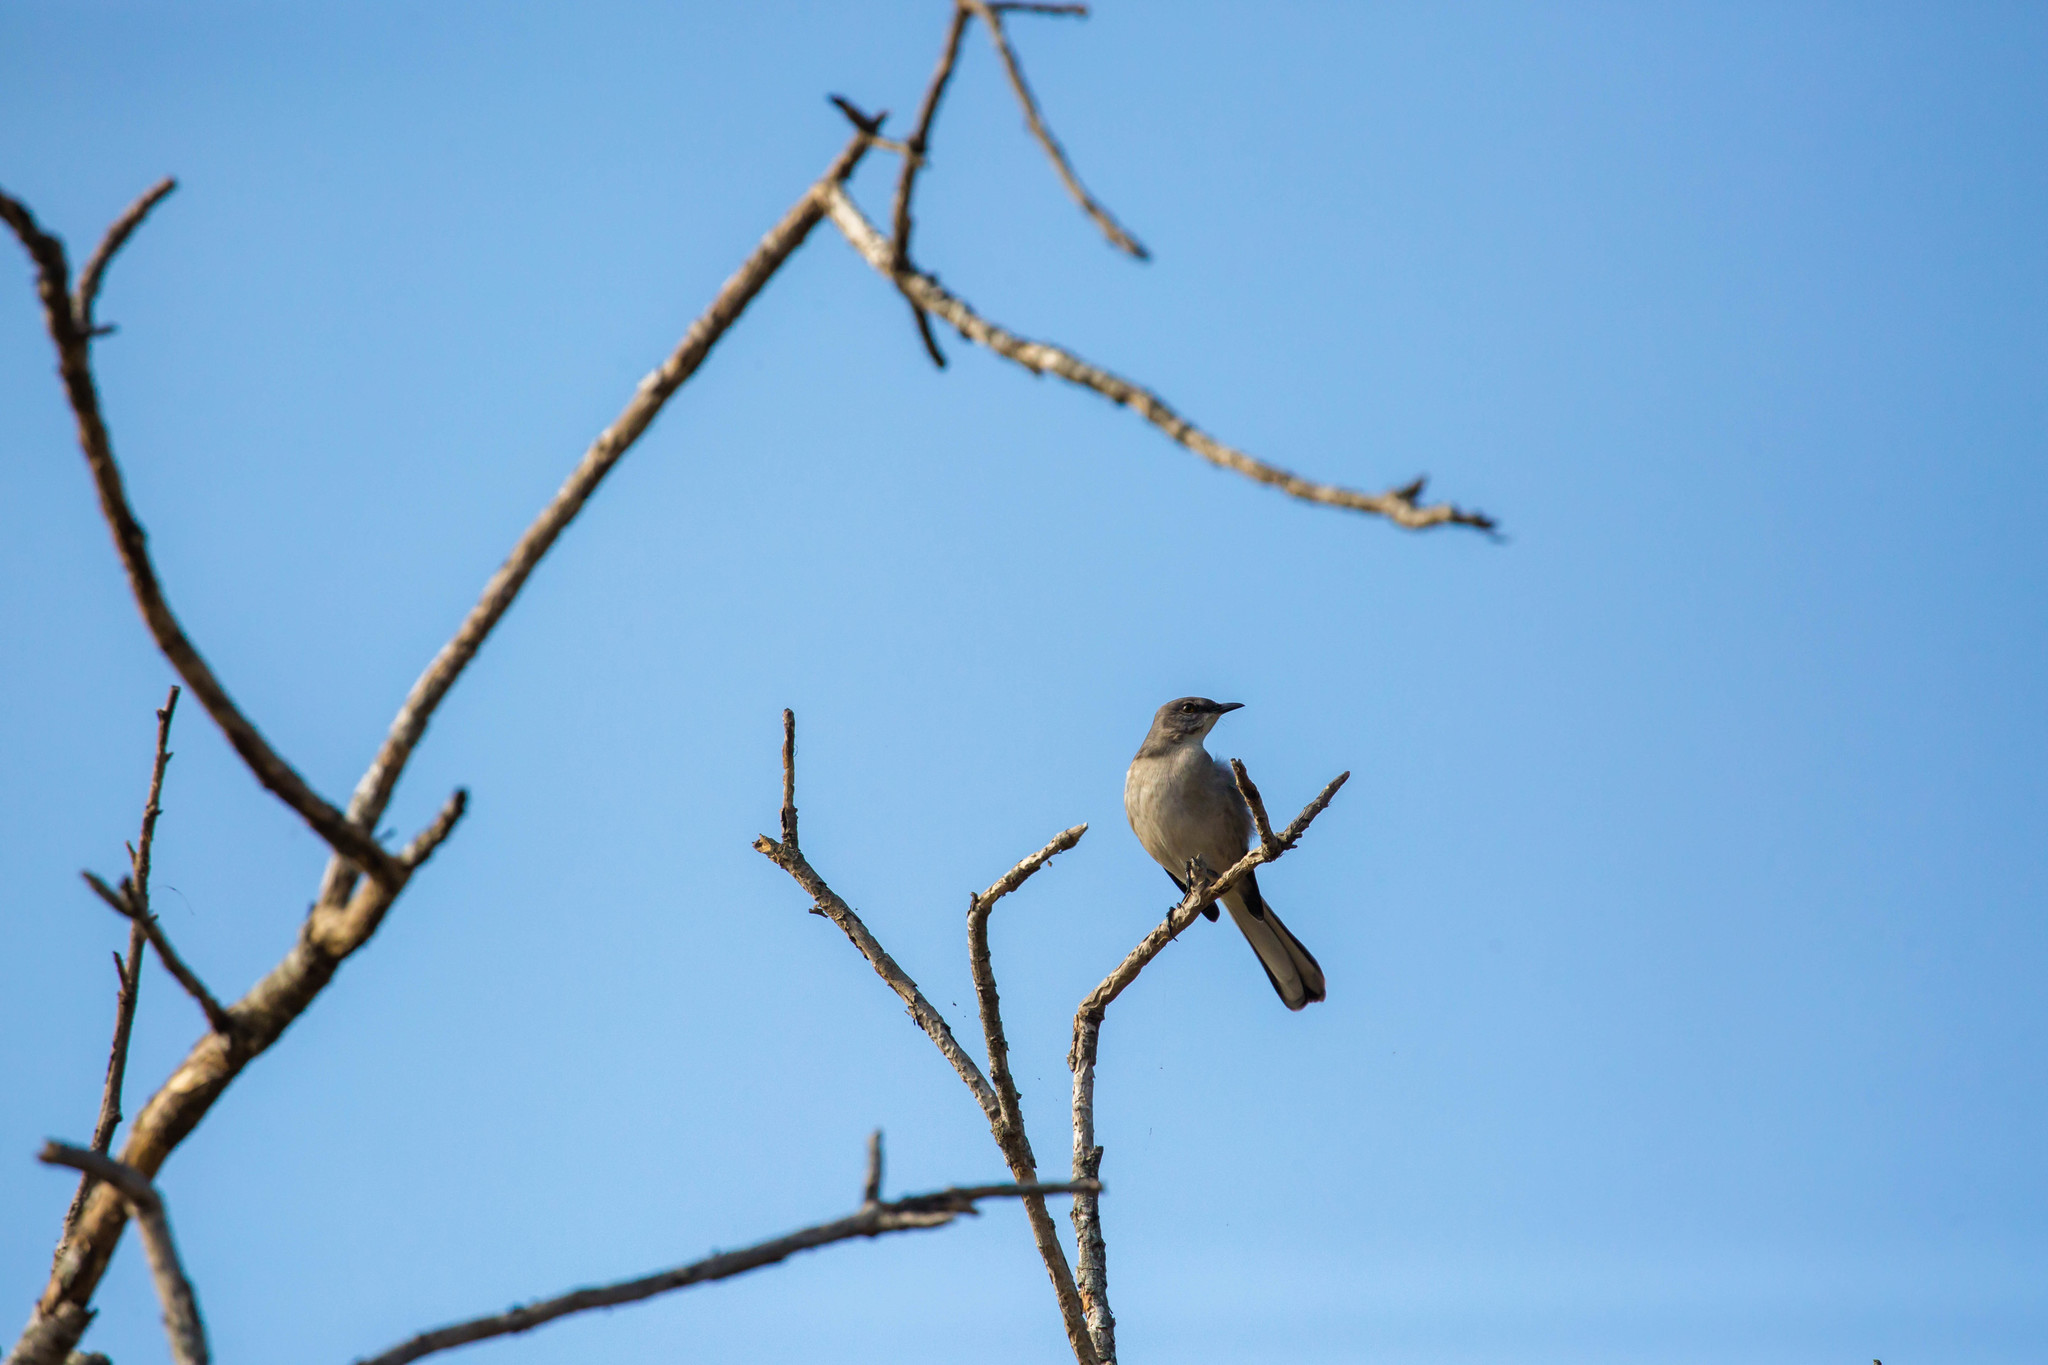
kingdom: Animalia
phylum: Chordata
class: Aves
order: Passeriformes
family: Mimidae
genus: Mimus
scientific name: Mimus polyglottos
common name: Northern mockingbird
